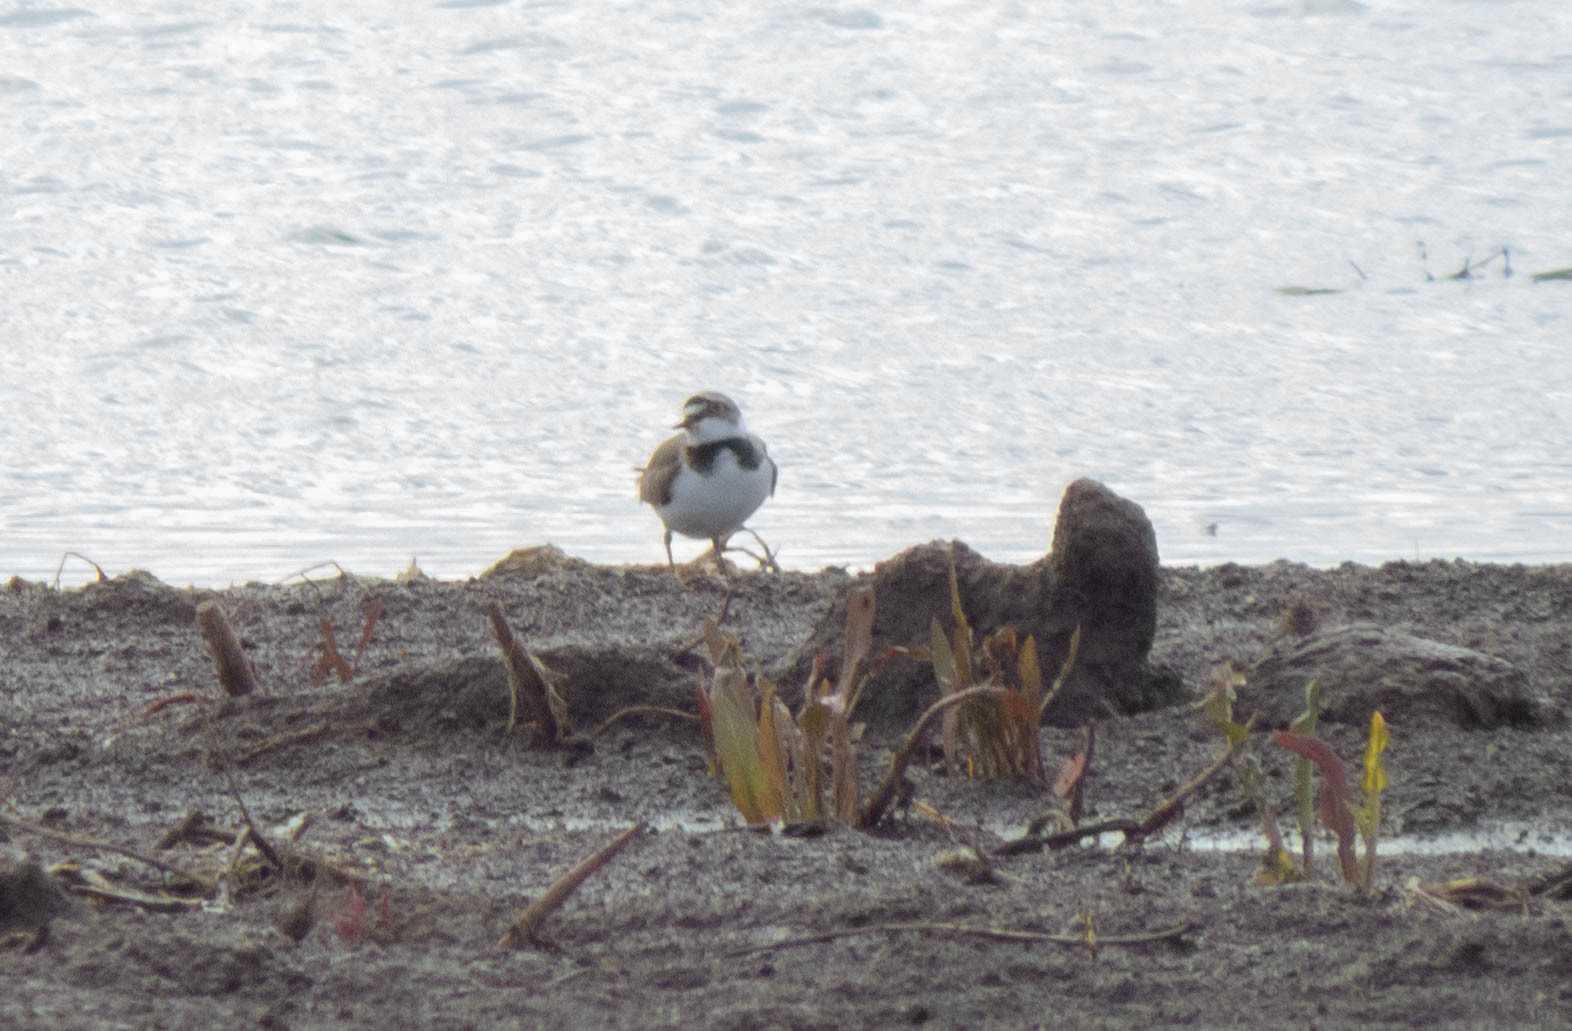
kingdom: Animalia
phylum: Chordata
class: Aves
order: Charadriiformes
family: Charadriidae
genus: Charadrius
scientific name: Charadrius dubius
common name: Little ringed plover
